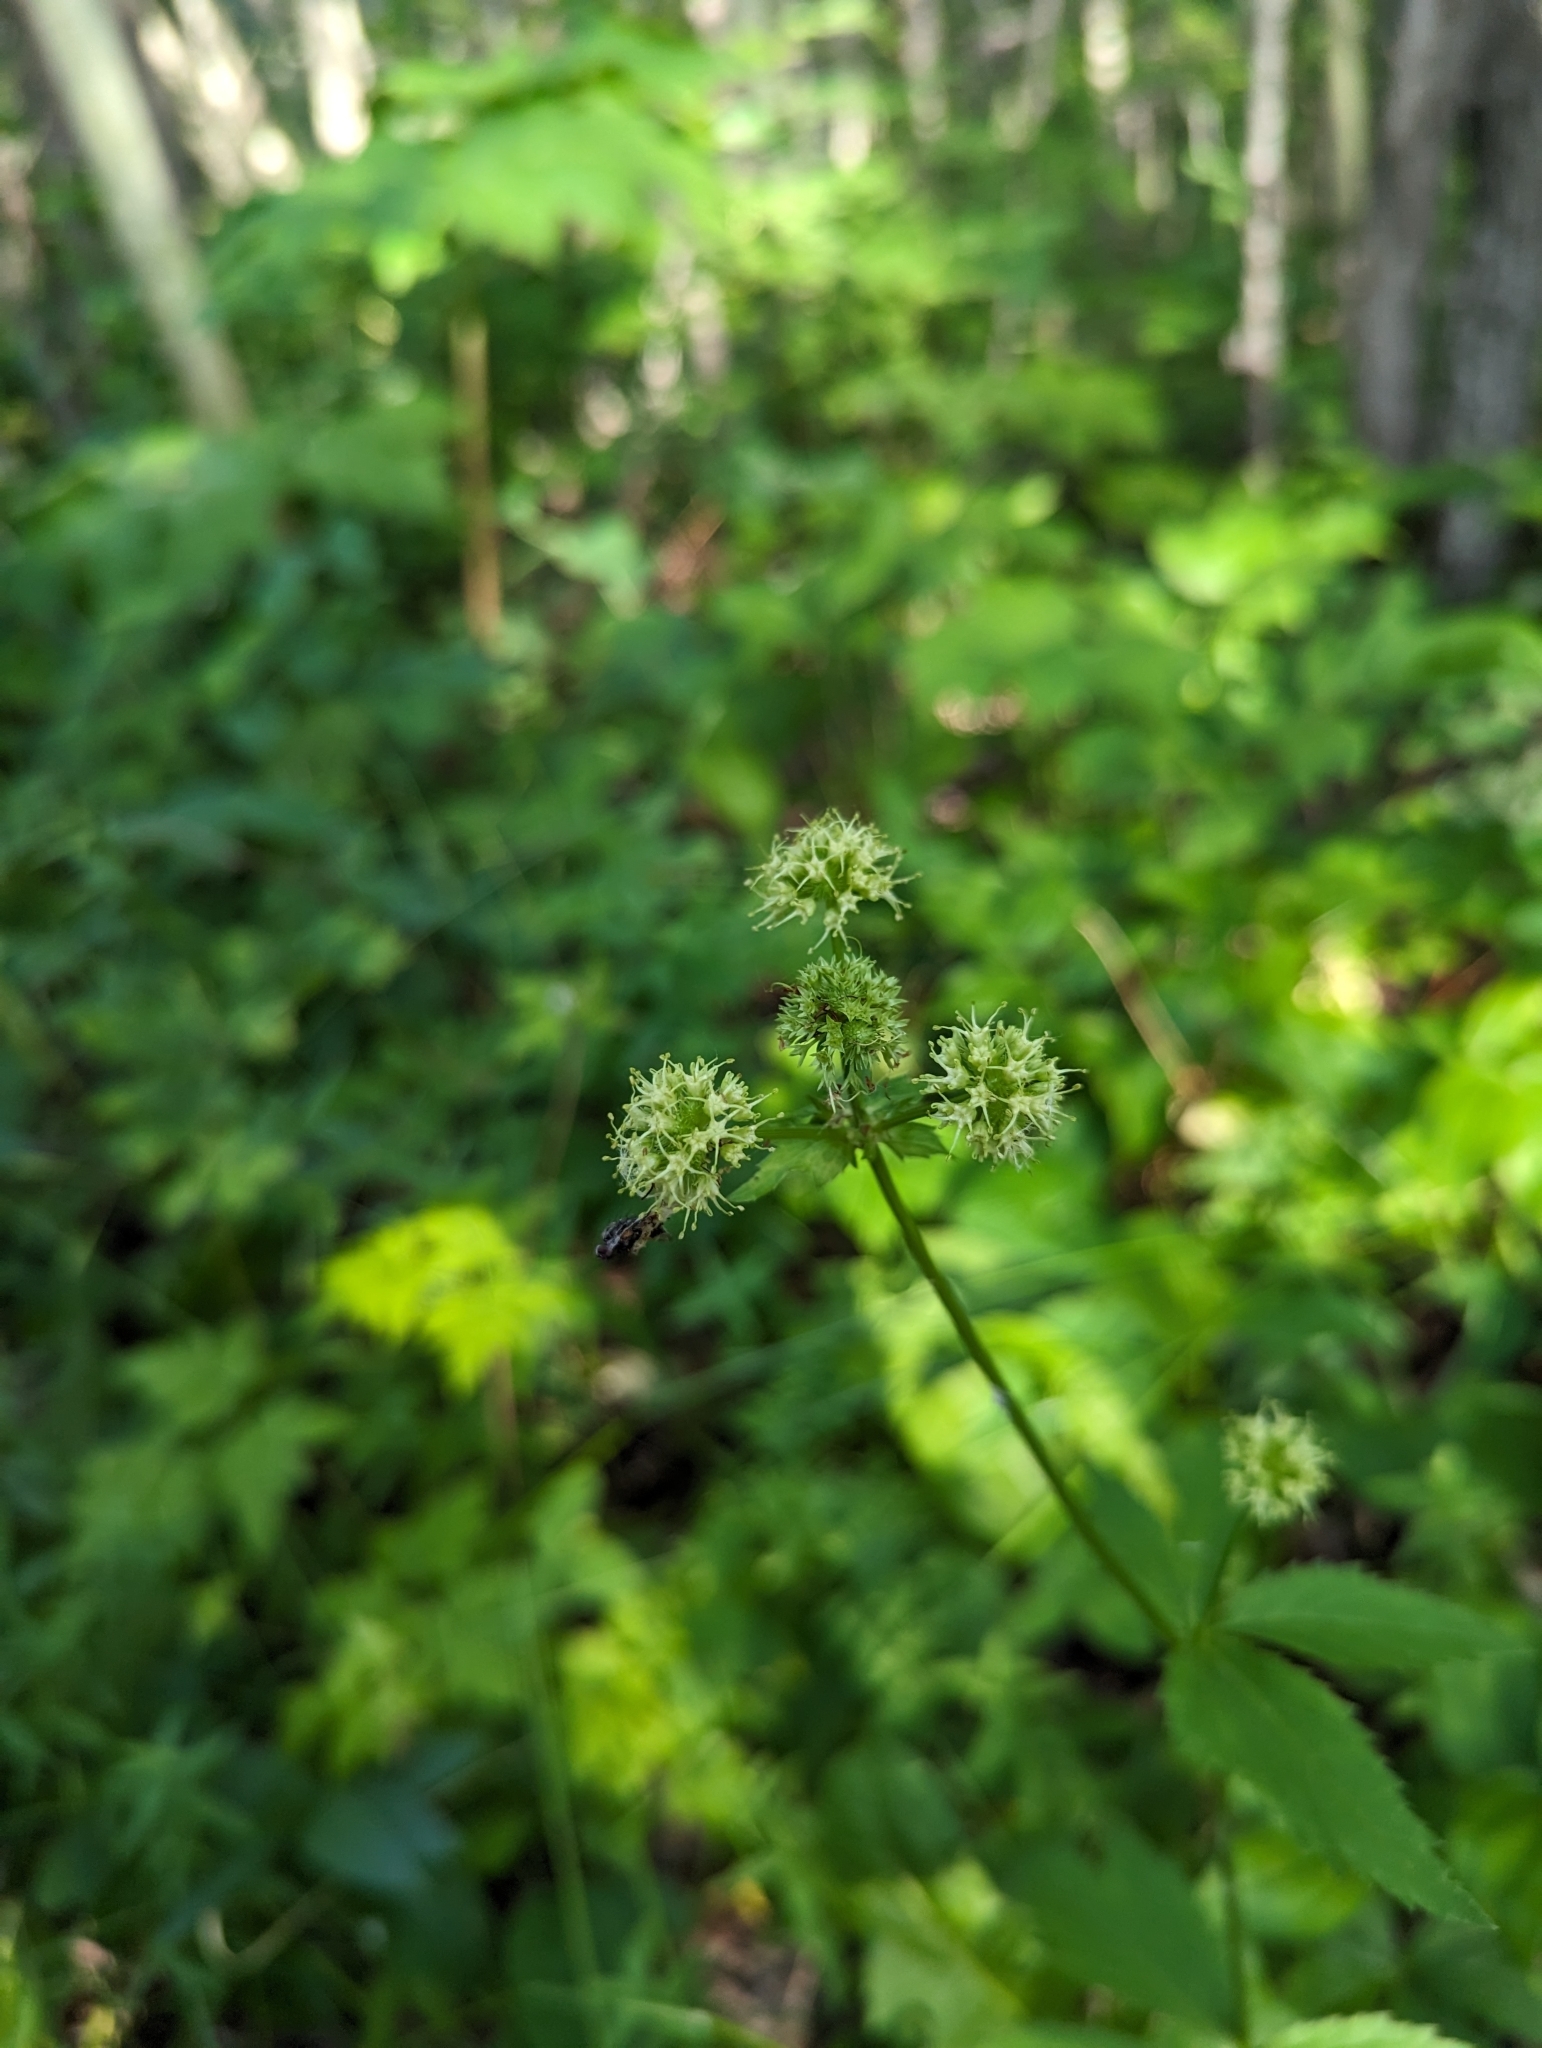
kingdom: Plantae
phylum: Tracheophyta
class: Magnoliopsida
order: Apiales
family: Apiaceae
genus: Sanicula
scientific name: Sanicula marilandica
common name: Black snakeroot
